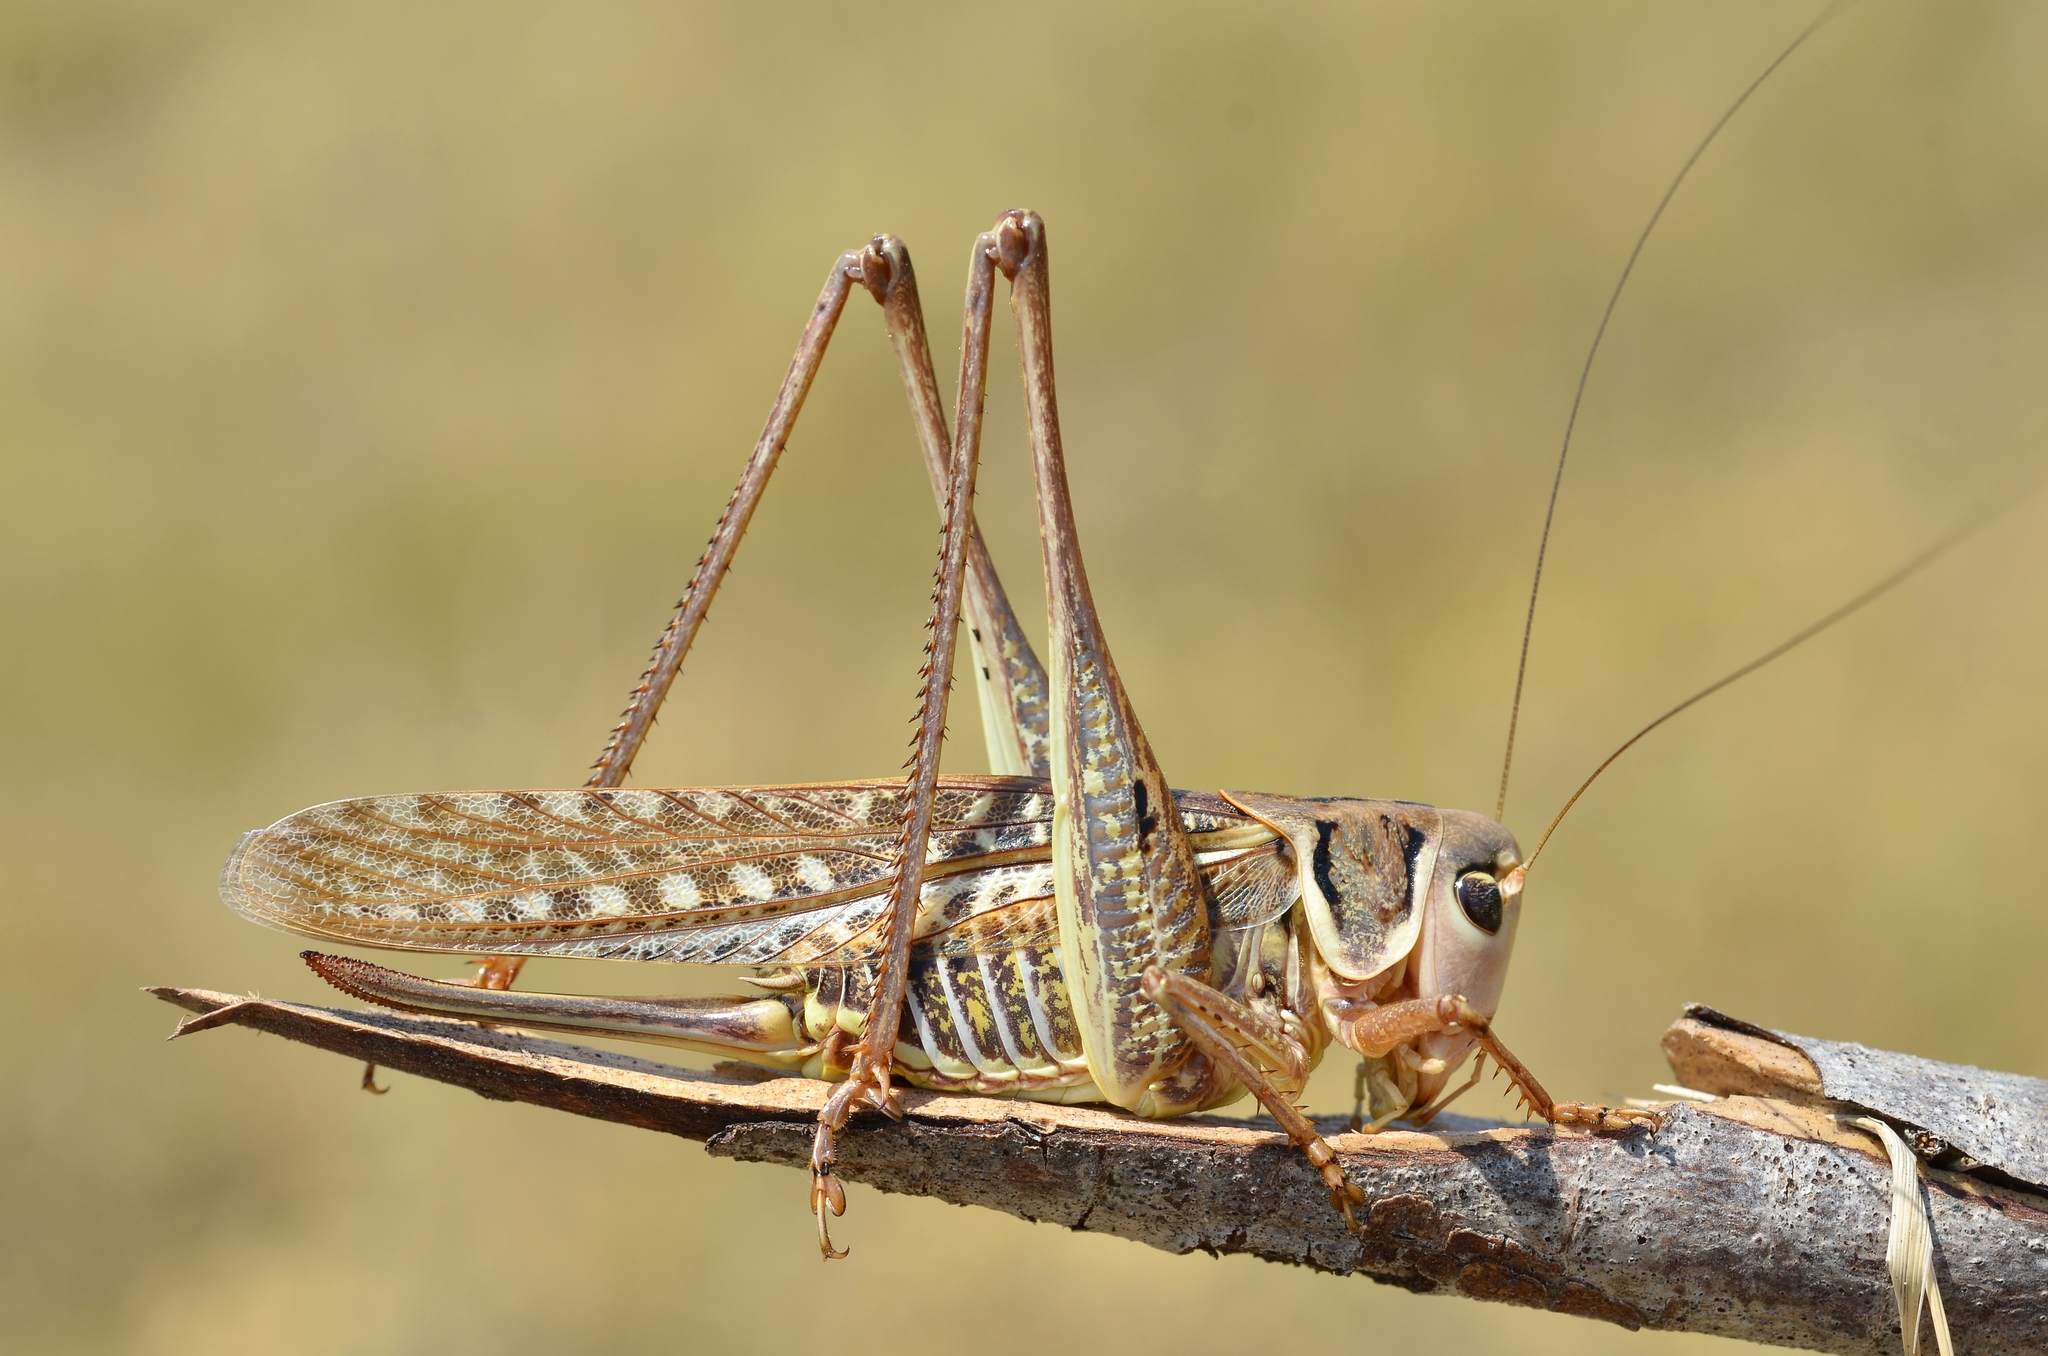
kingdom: Animalia
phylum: Arthropoda
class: Insecta
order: Orthoptera
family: Tettigoniidae
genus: Decticus
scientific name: Decticus albifrons
